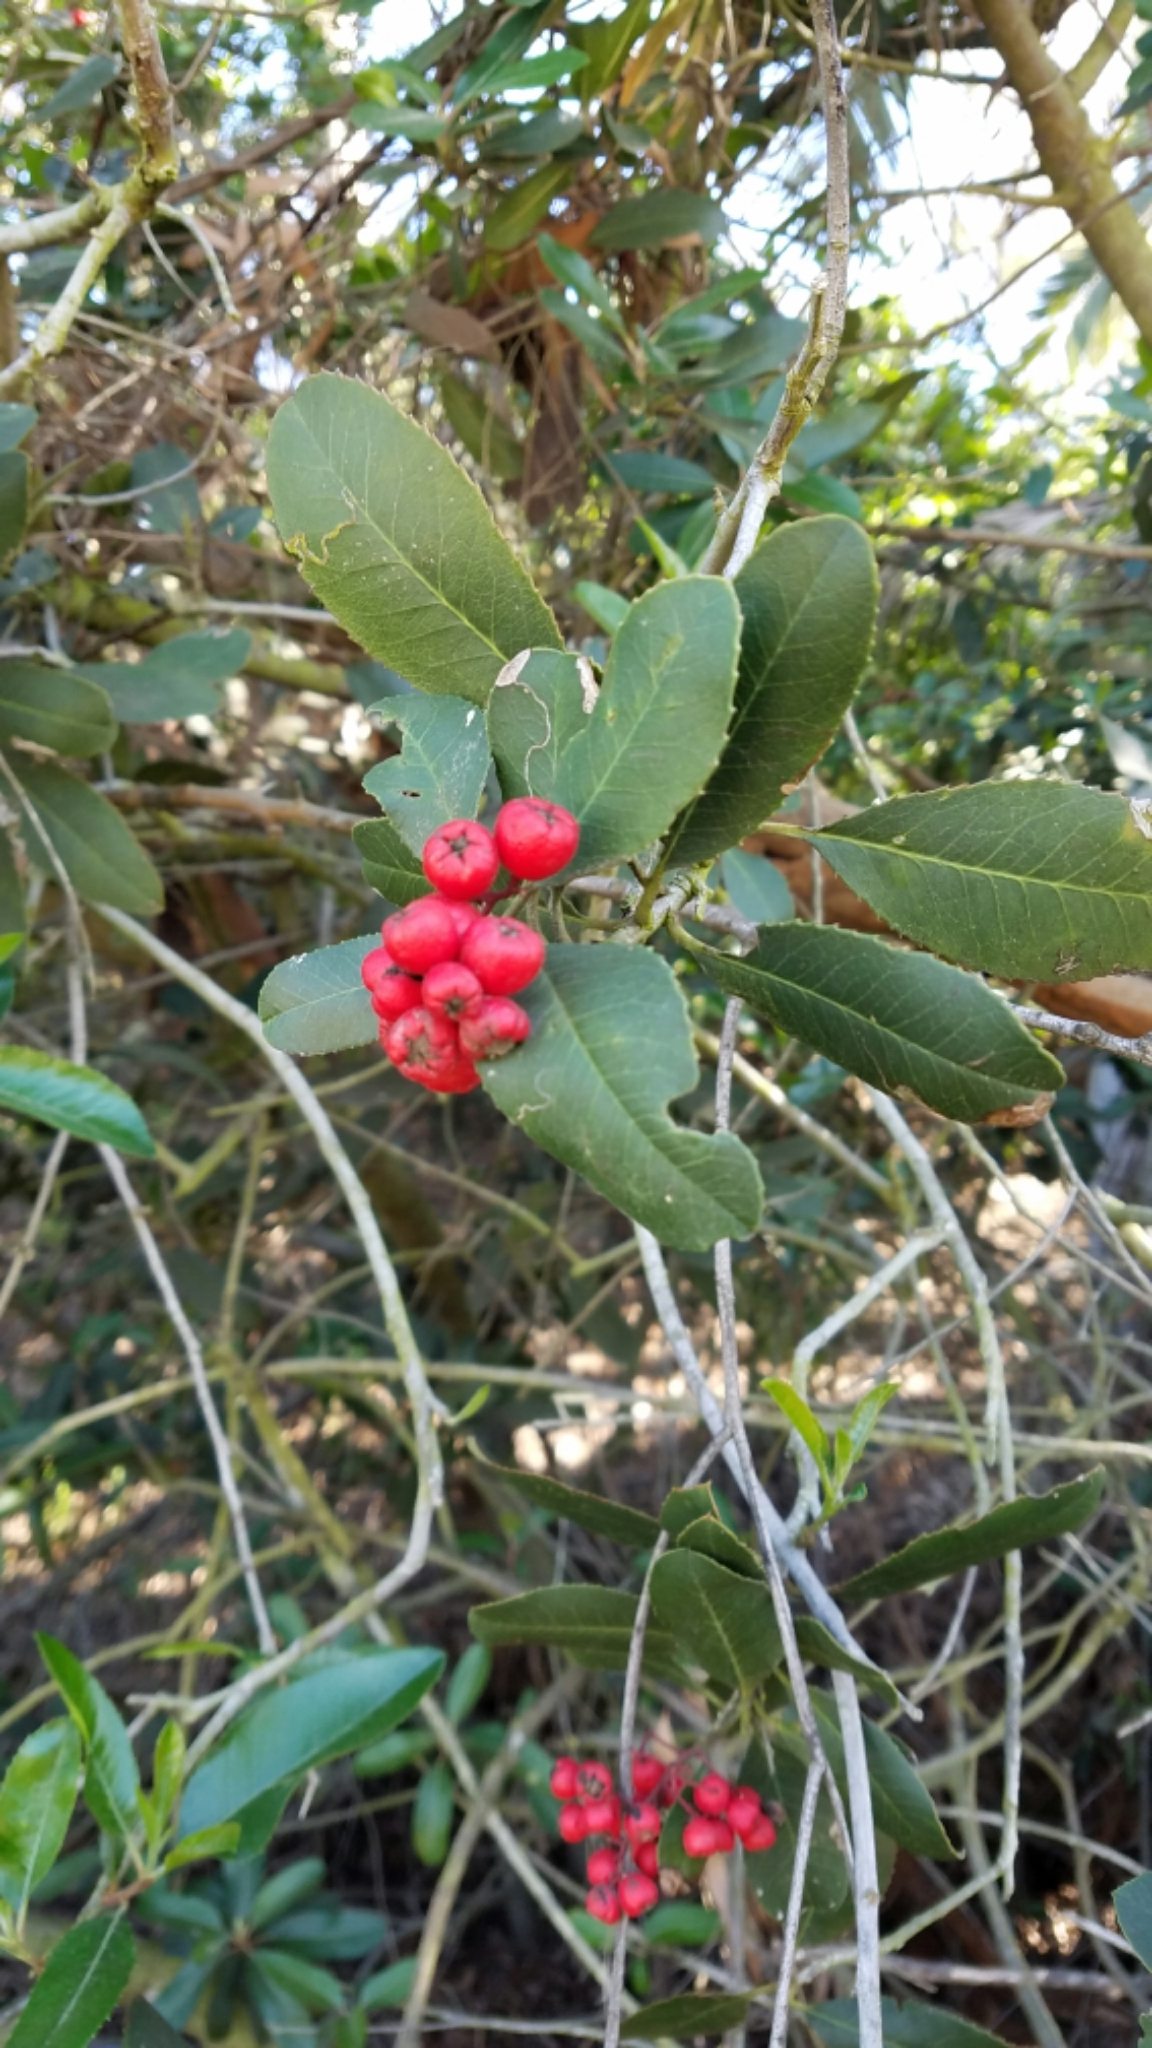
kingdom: Plantae
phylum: Tracheophyta
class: Magnoliopsida
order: Rosales
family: Rosaceae
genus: Heteromeles
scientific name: Heteromeles arbutifolia
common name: California-holly
